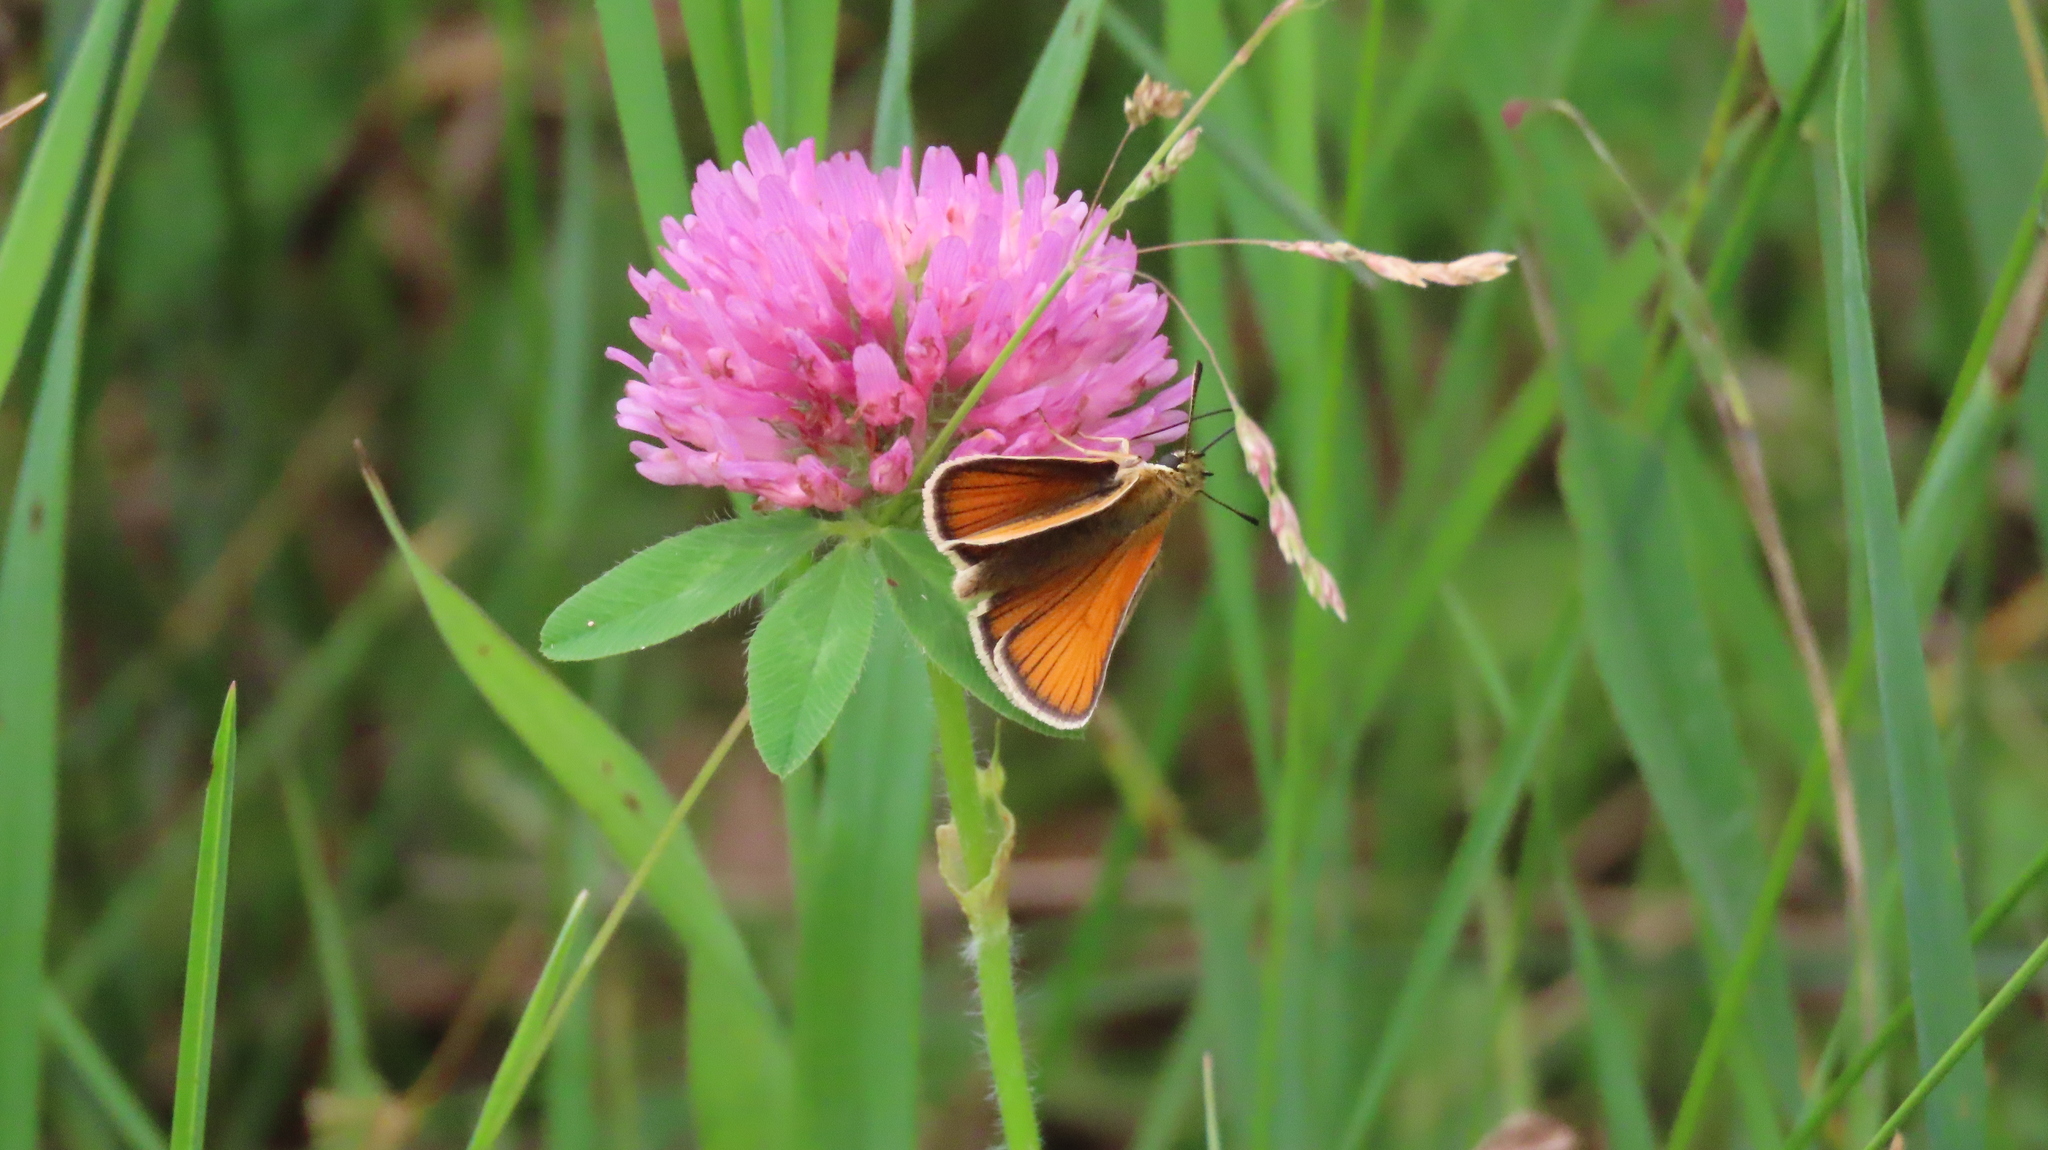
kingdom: Animalia
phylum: Arthropoda
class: Insecta
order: Lepidoptera
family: Hesperiidae
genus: Thymelicus
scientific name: Thymelicus lineola
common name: Essex skipper
